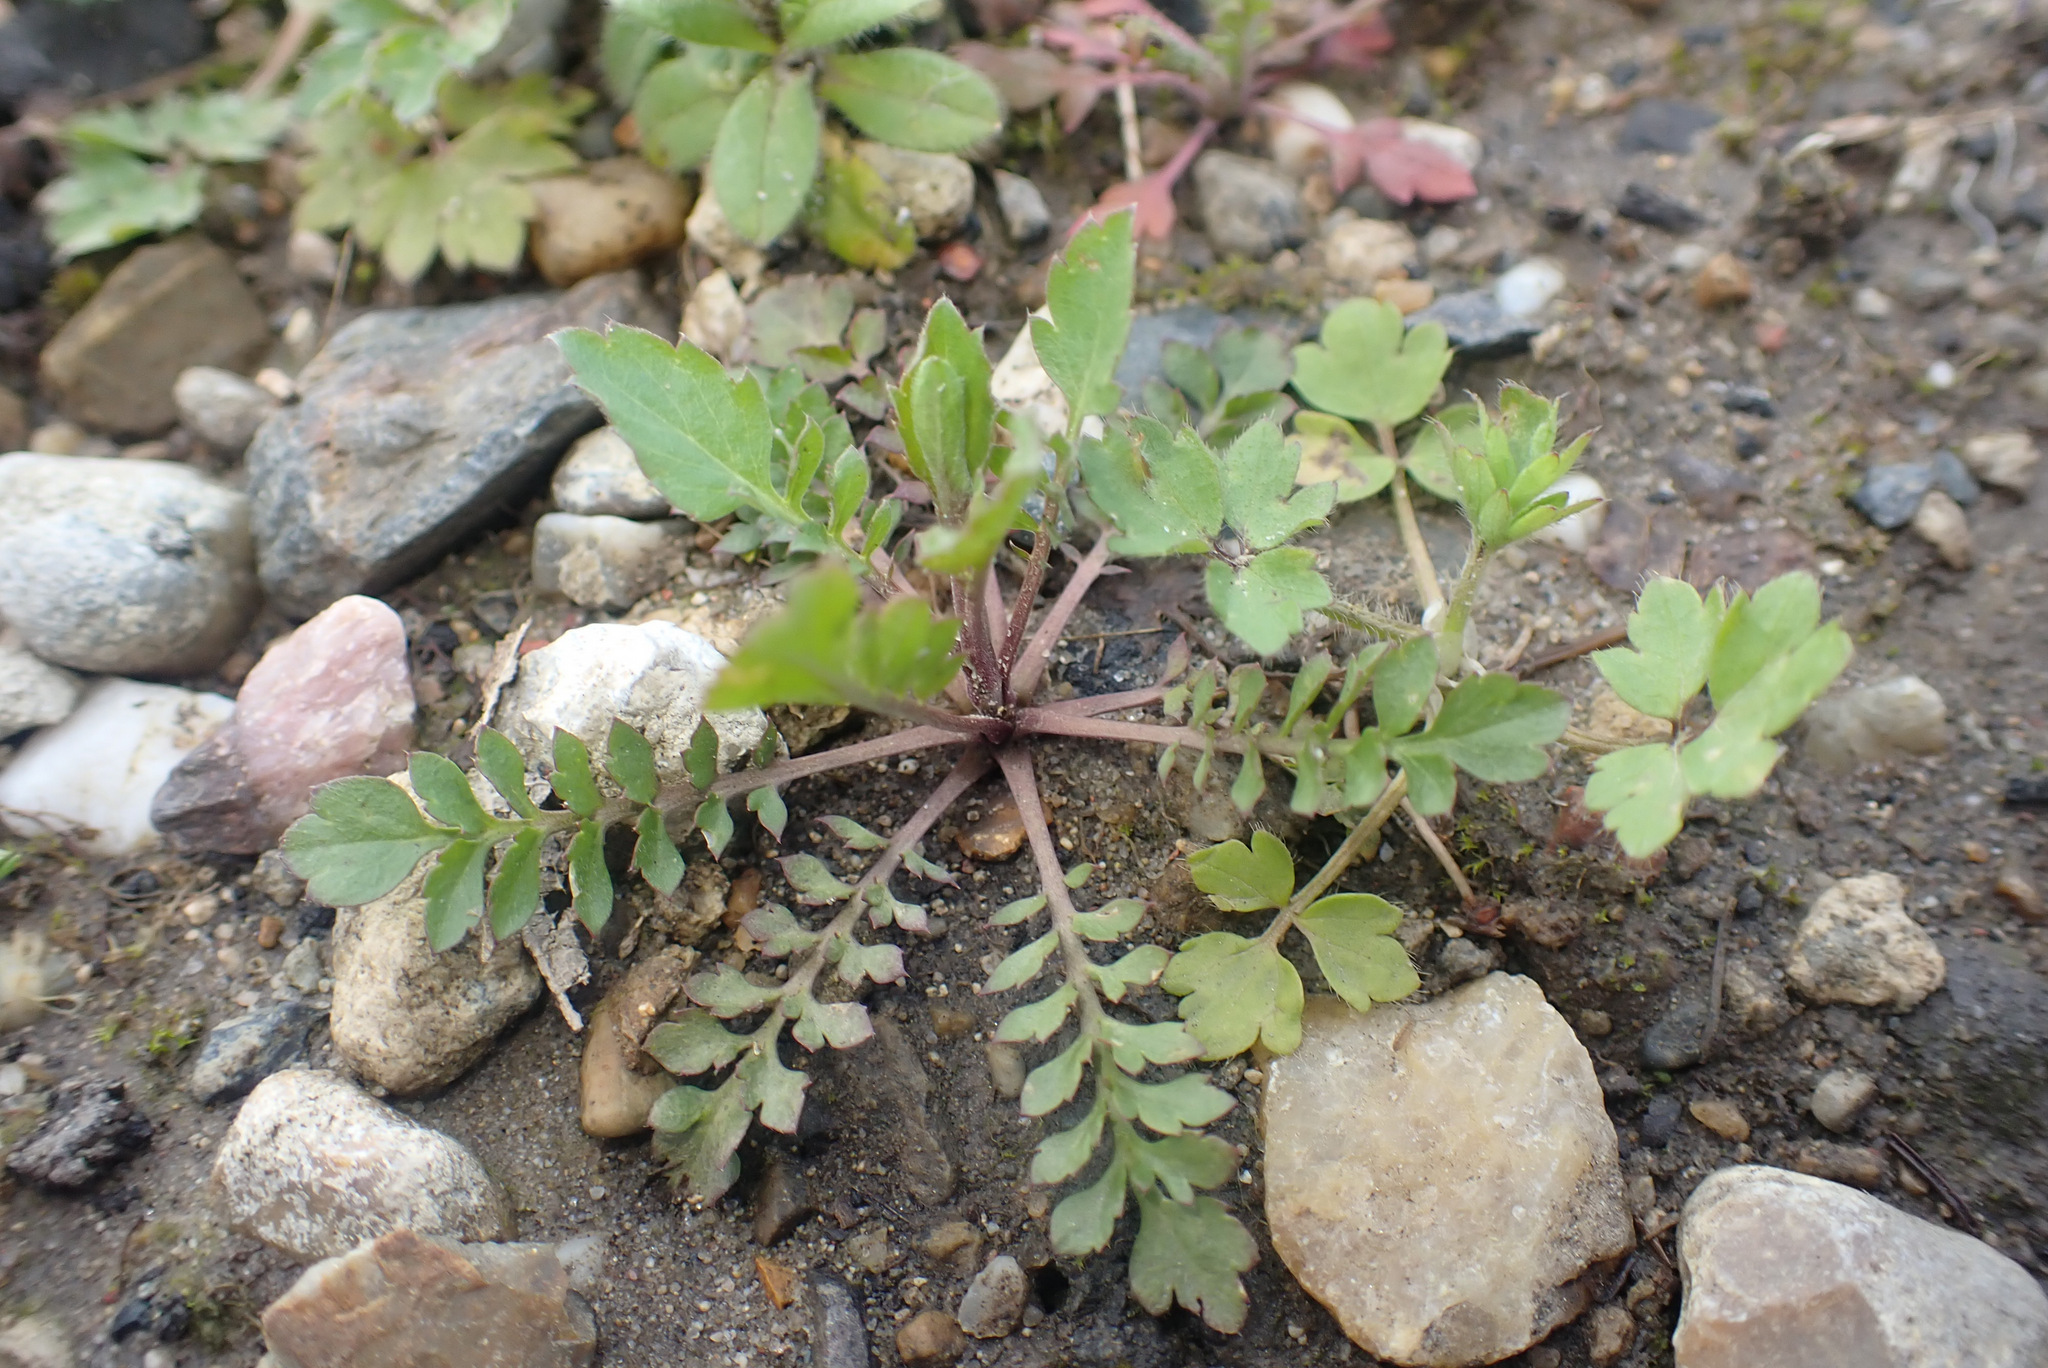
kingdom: Plantae
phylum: Tracheophyta
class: Magnoliopsida
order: Brassicales
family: Brassicaceae
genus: Lepidium
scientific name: Lepidium virginicum
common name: Least pepperwort
